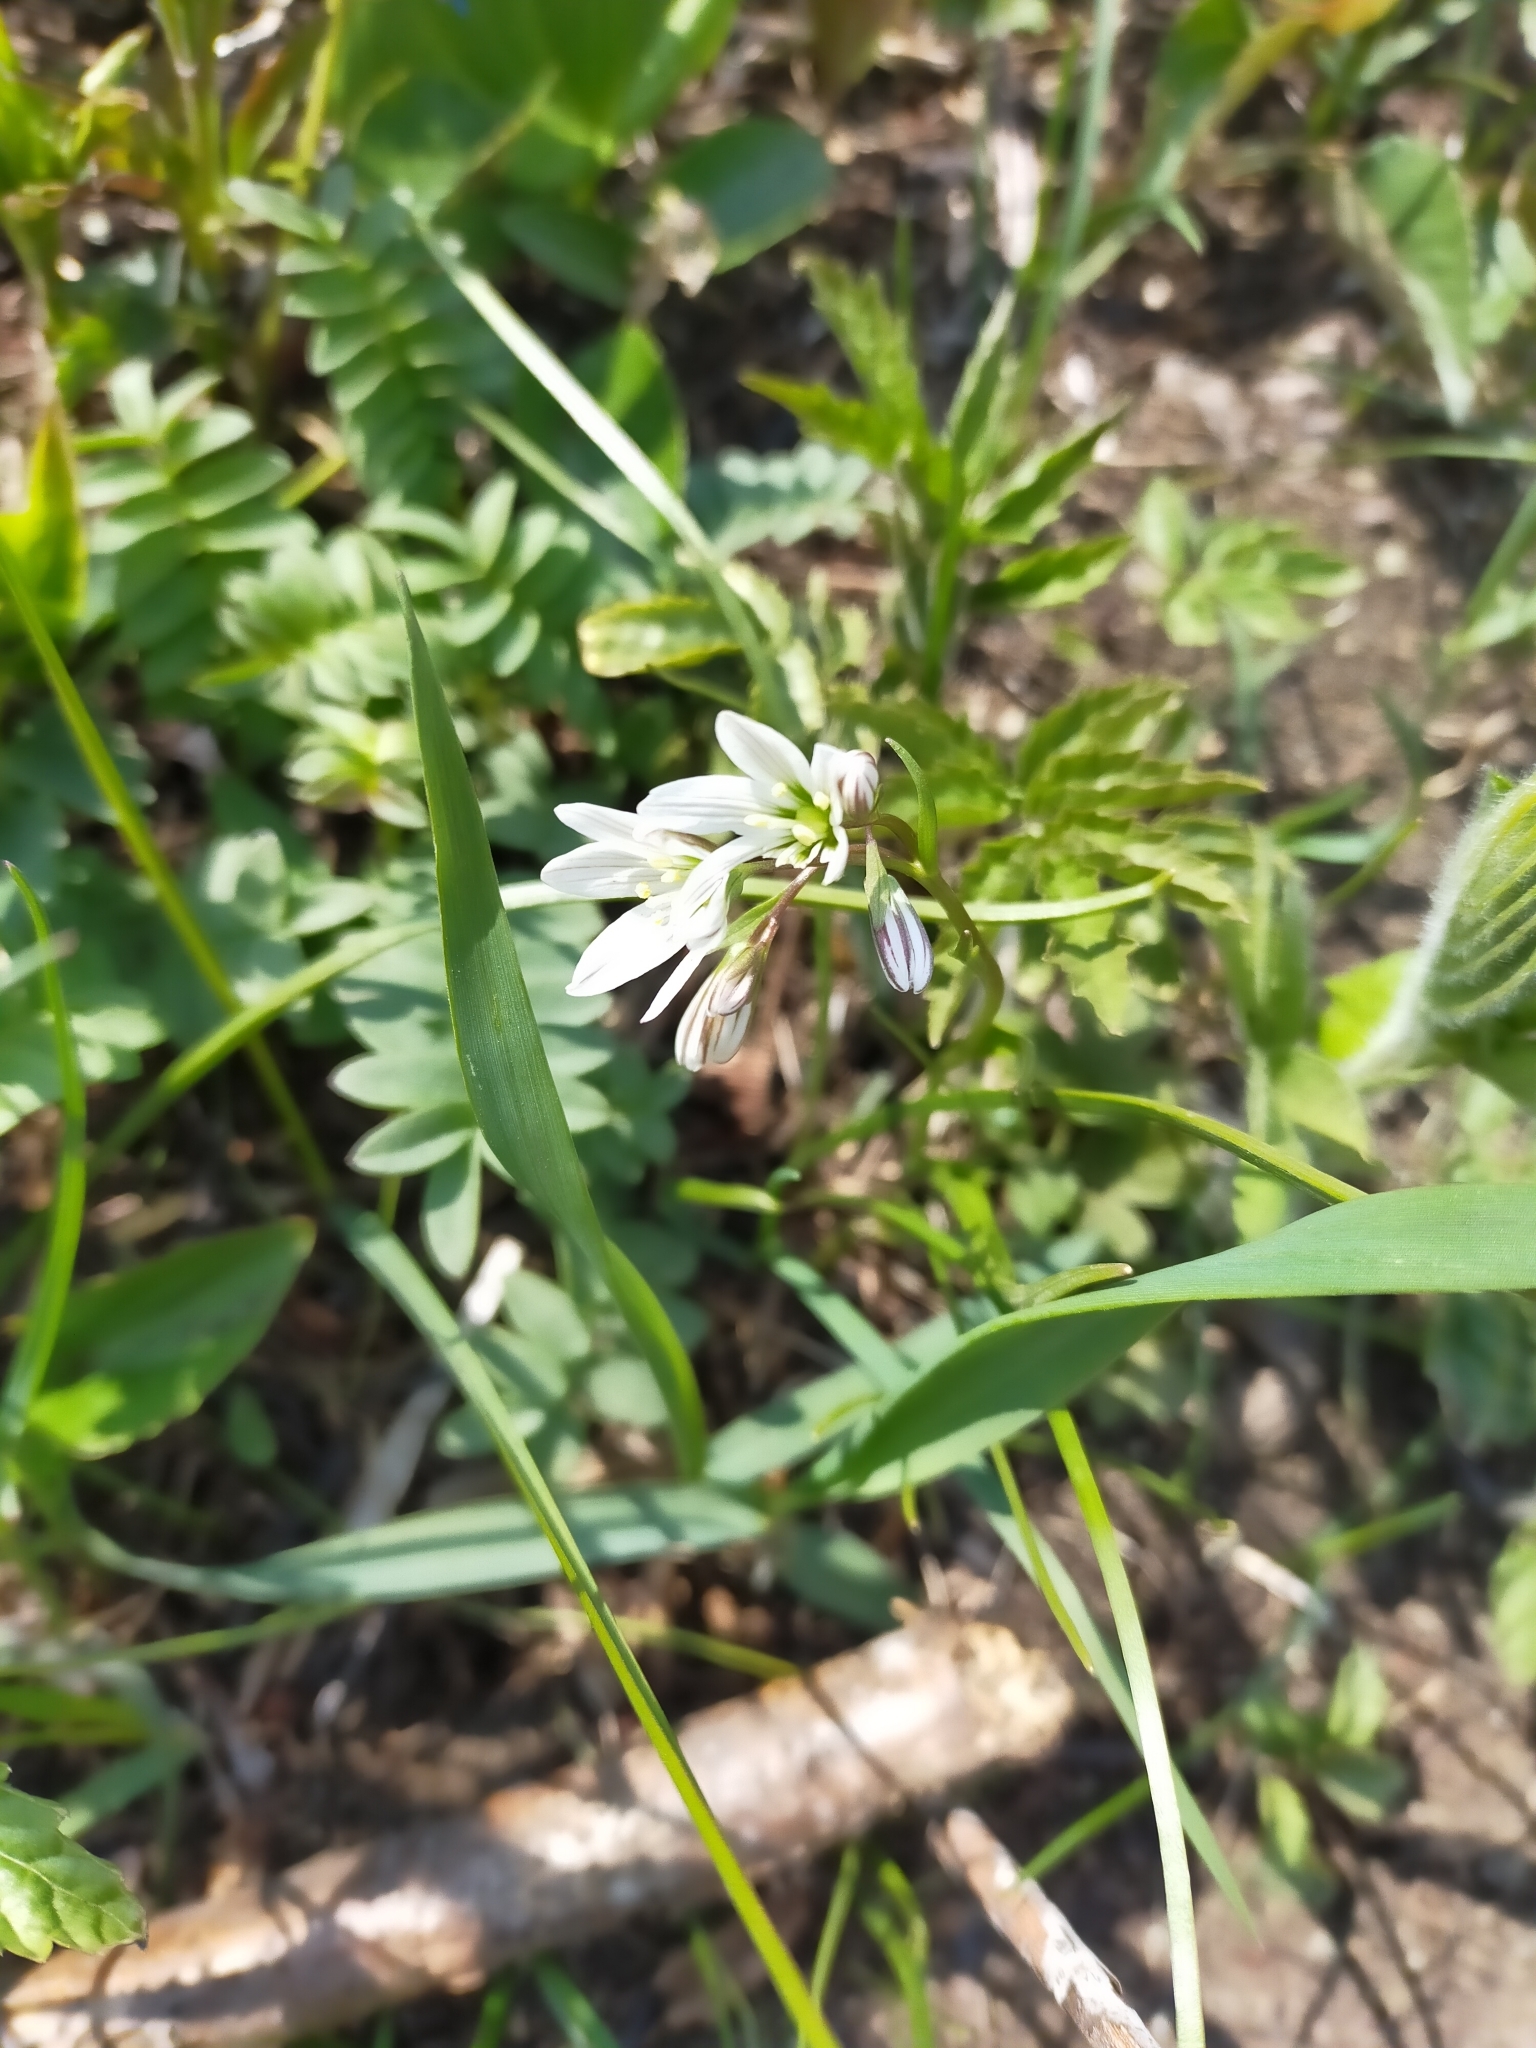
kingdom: Plantae
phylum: Tracheophyta
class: Liliopsida
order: Liliales
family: Liliaceae
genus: Gagea
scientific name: Gagea triflora
